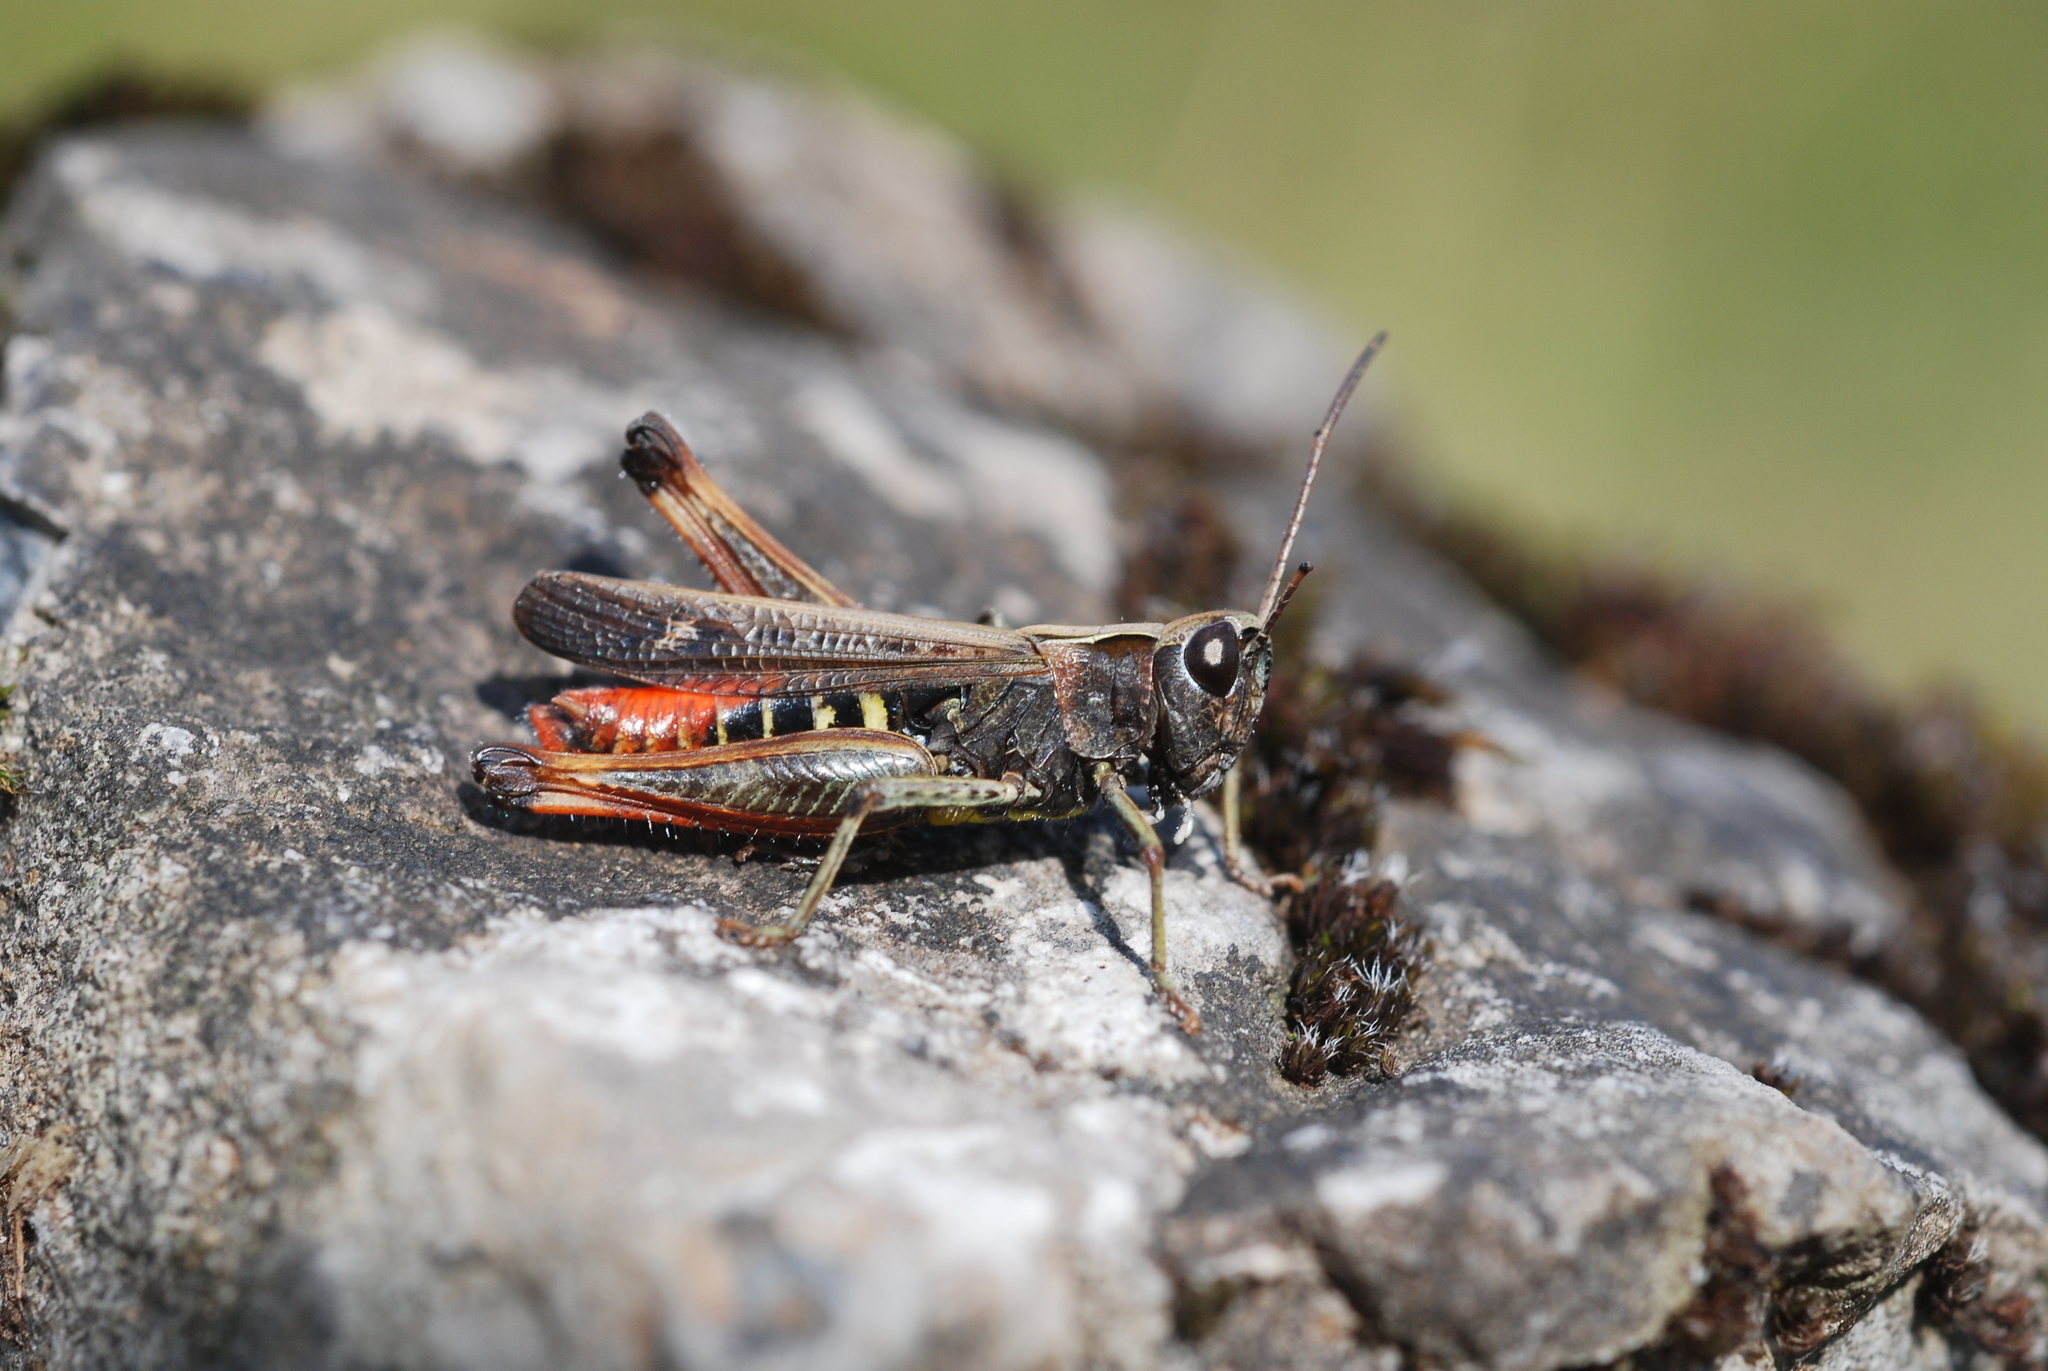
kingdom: Animalia
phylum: Arthropoda
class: Insecta
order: Orthoptera
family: Acrididae
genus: Omocestus
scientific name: Omocestus rufipes
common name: Woodland grasshopper
